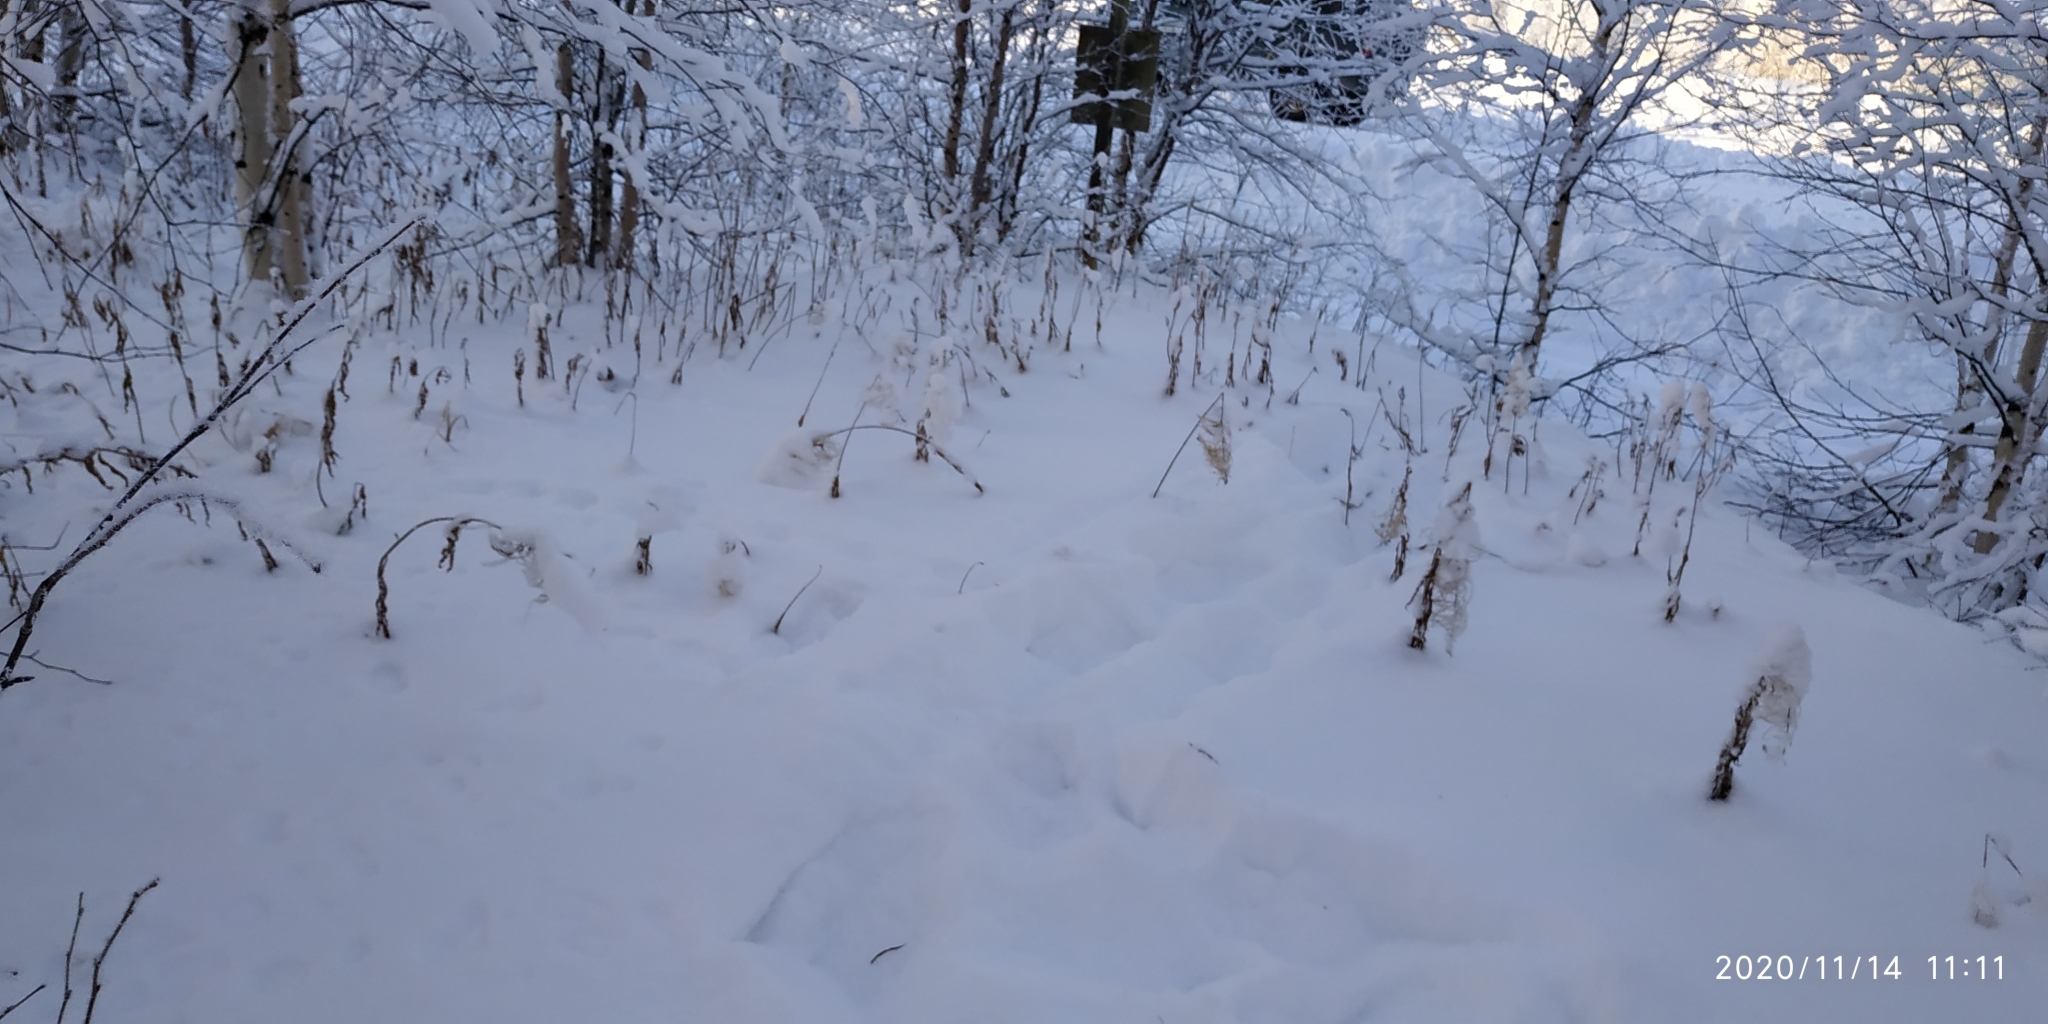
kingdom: Plantae
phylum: Tracheophyta
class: Magnoliopsida
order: Myrtales
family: Onagraceae
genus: Chamaenerion
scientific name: Chamaenerion angustifolium
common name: Fireweed
